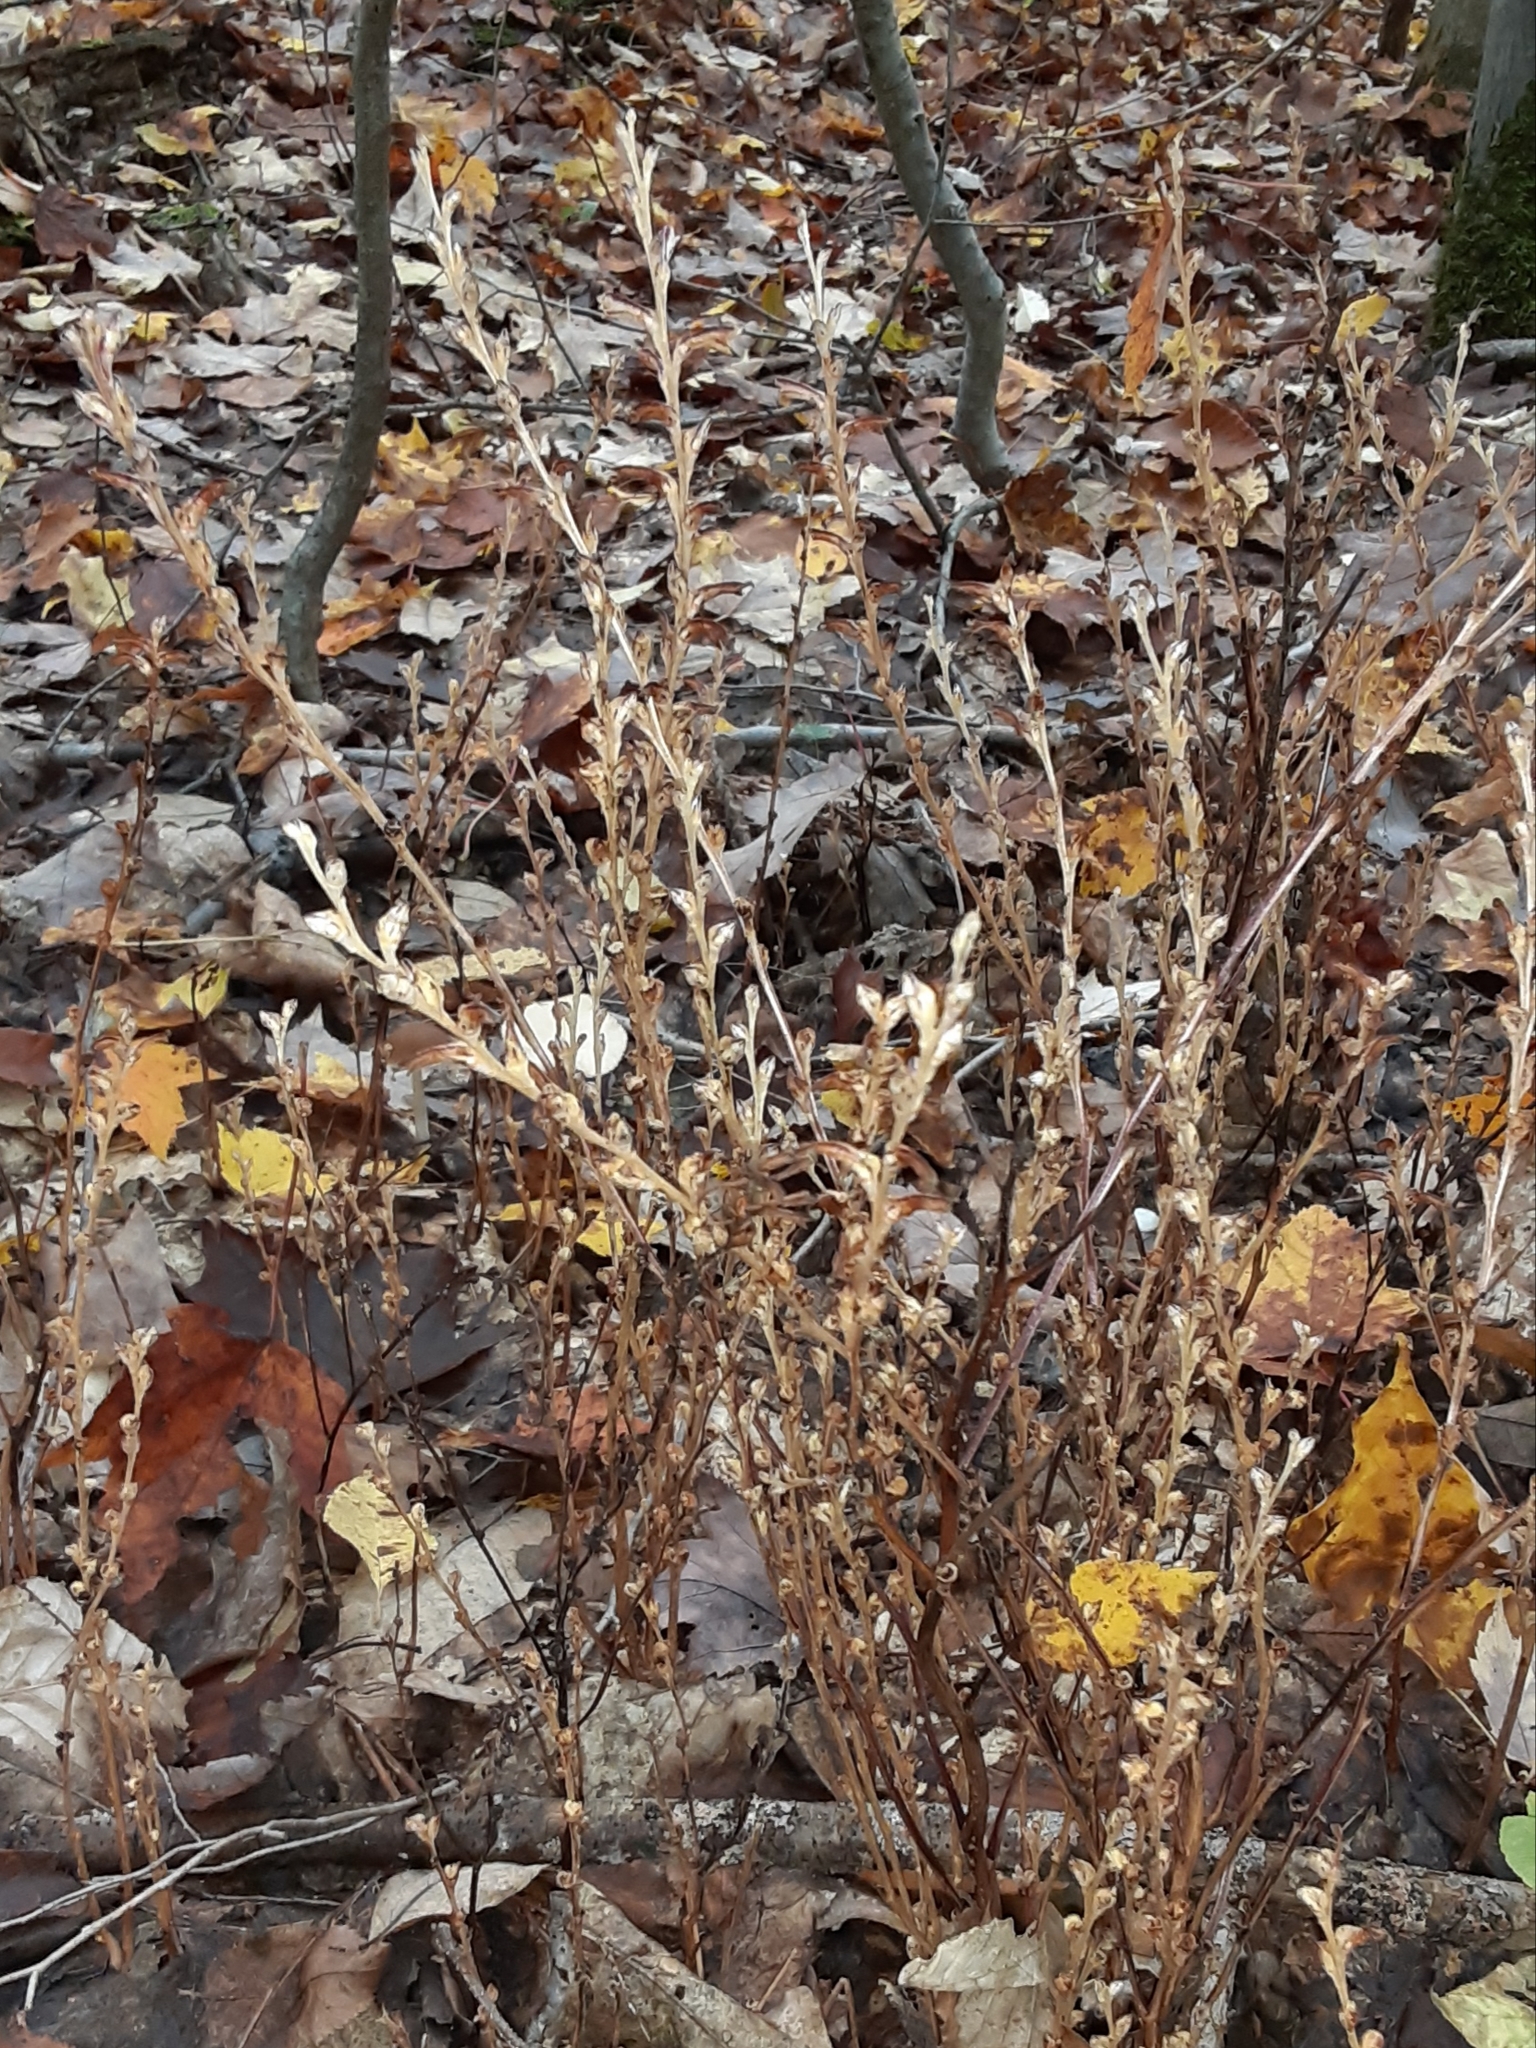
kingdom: Plantae
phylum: Tracheophyta
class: Magnoliopsida
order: Lamiales
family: Orobanchaceae
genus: Epifagus
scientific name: Epifagus virginiana
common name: Beechdrops
